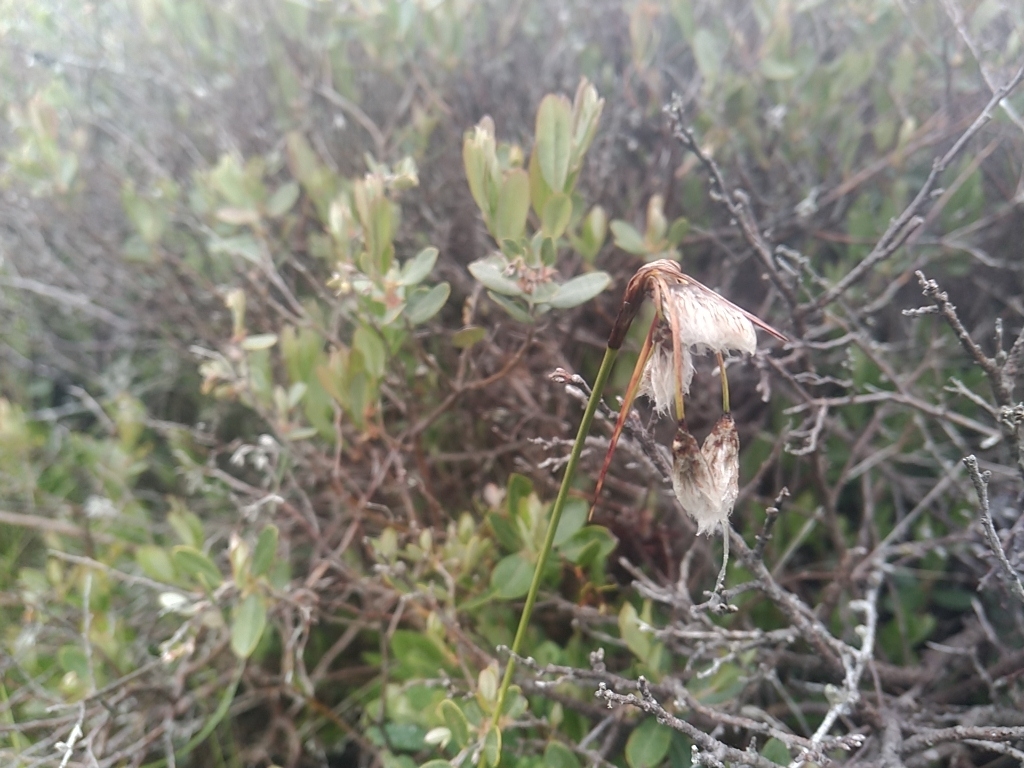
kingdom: Plantae
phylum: Tracheophyta
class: Liliopsida
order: Poales
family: Cyperaceae
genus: Eriophorum
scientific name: Eriophorum angustifolium
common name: Common cottongrass
